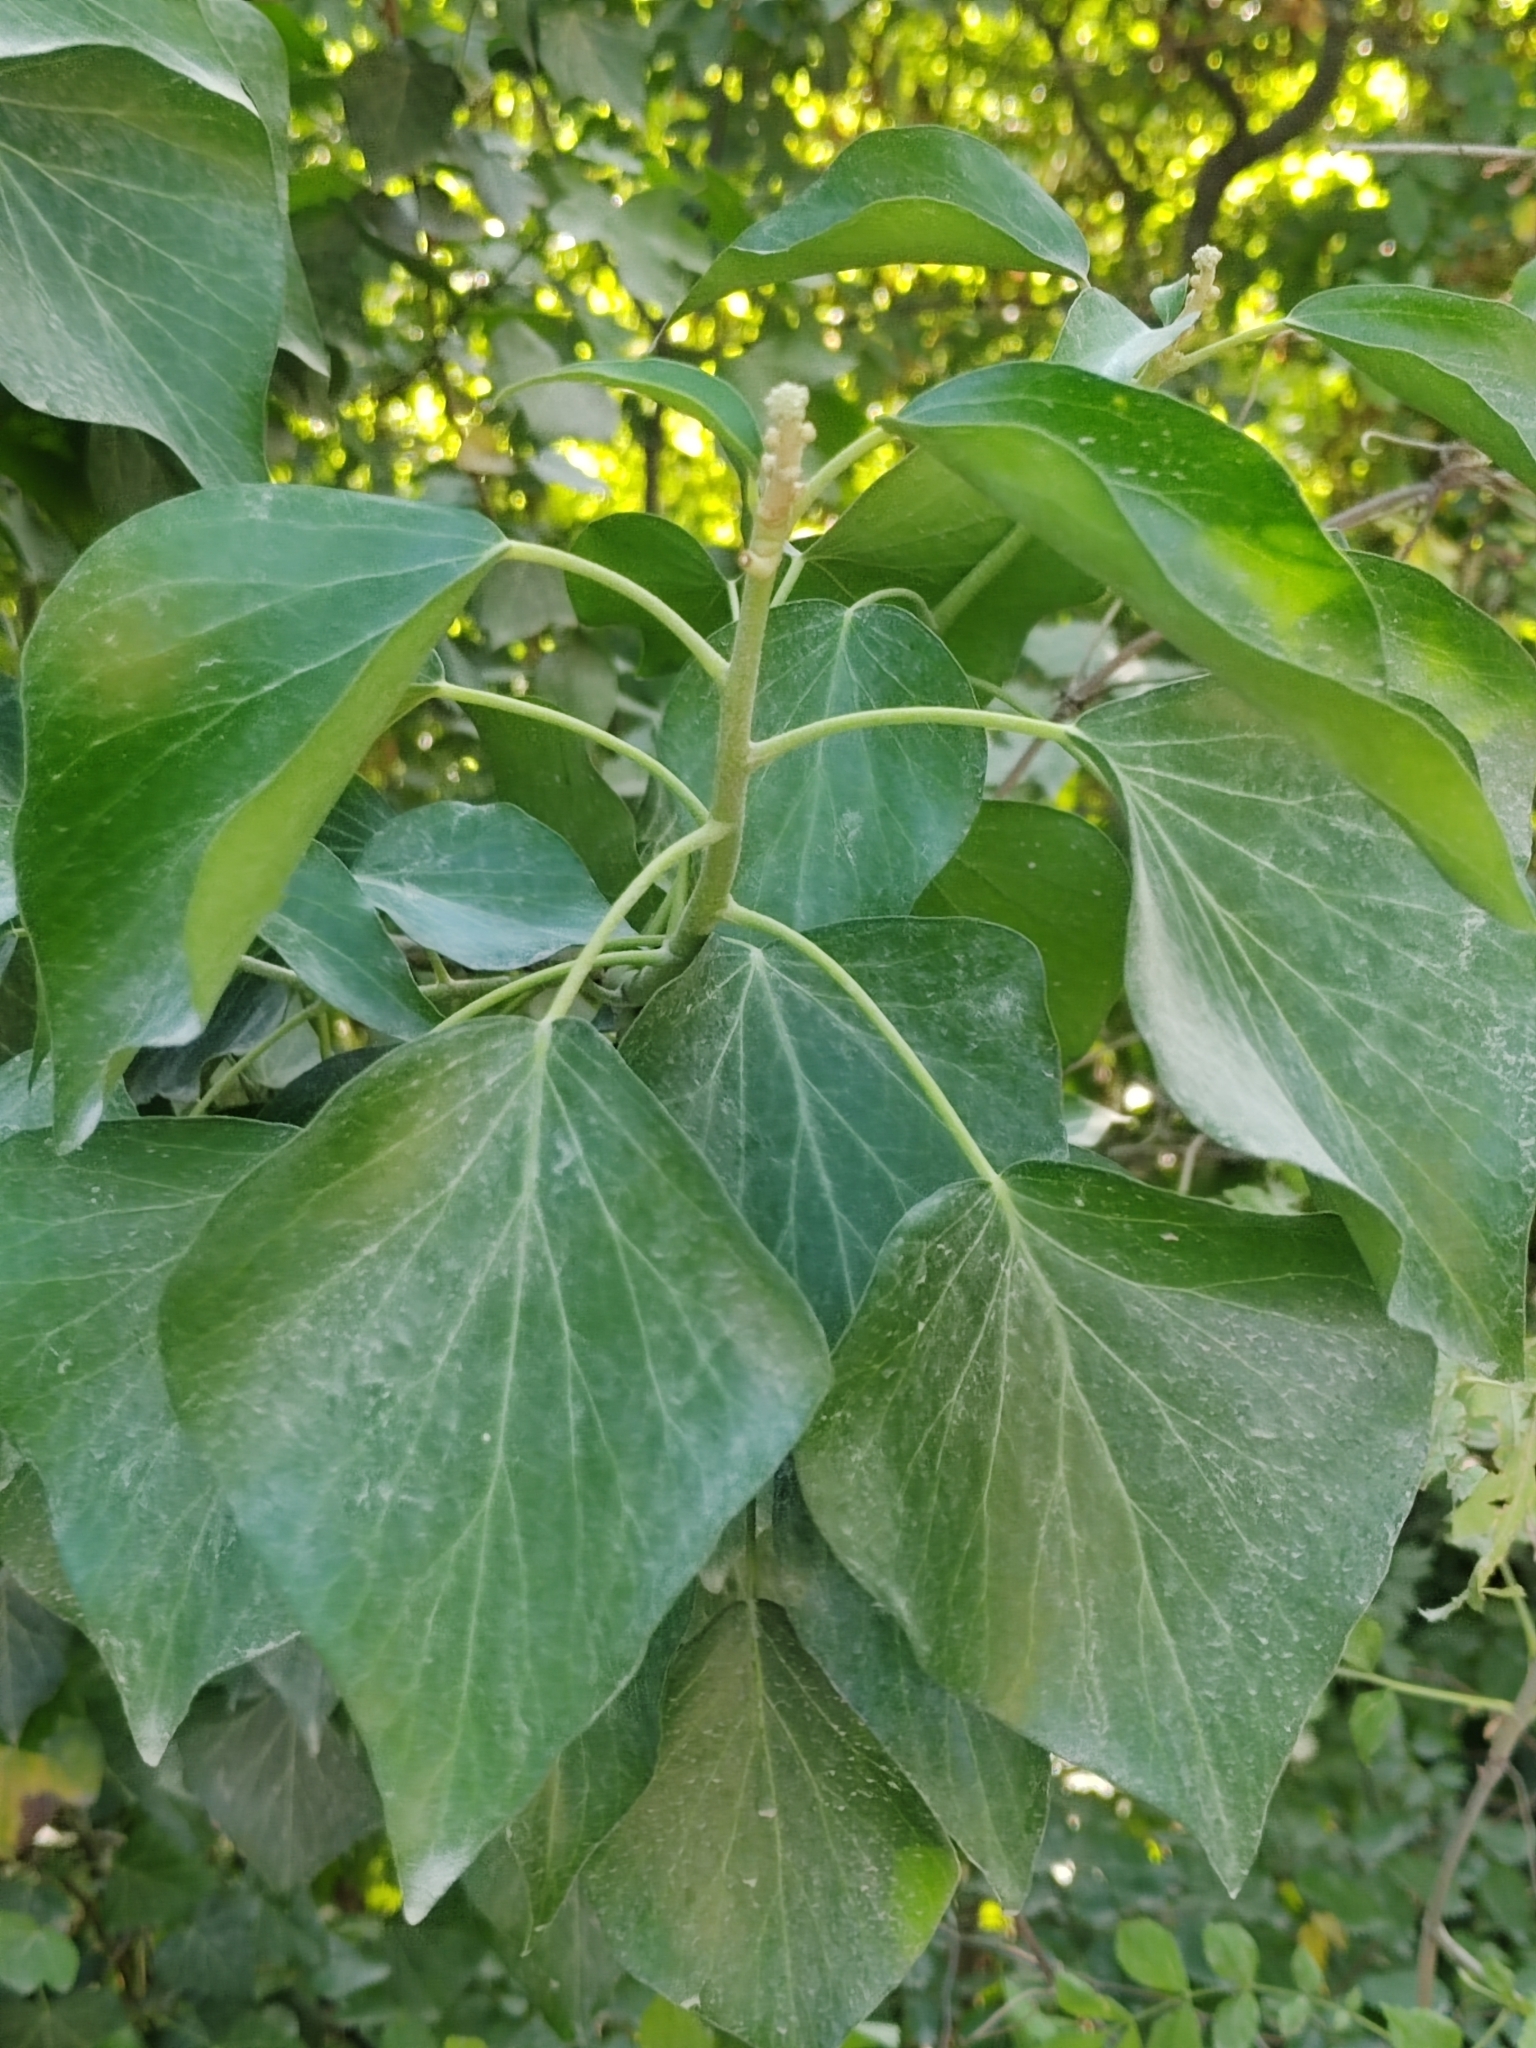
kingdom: Plantae
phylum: Tracheophyta
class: Magnoliopsida
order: Apiales
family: Araliaceae
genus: Hedera
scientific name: Hedera helix
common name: Ivy
